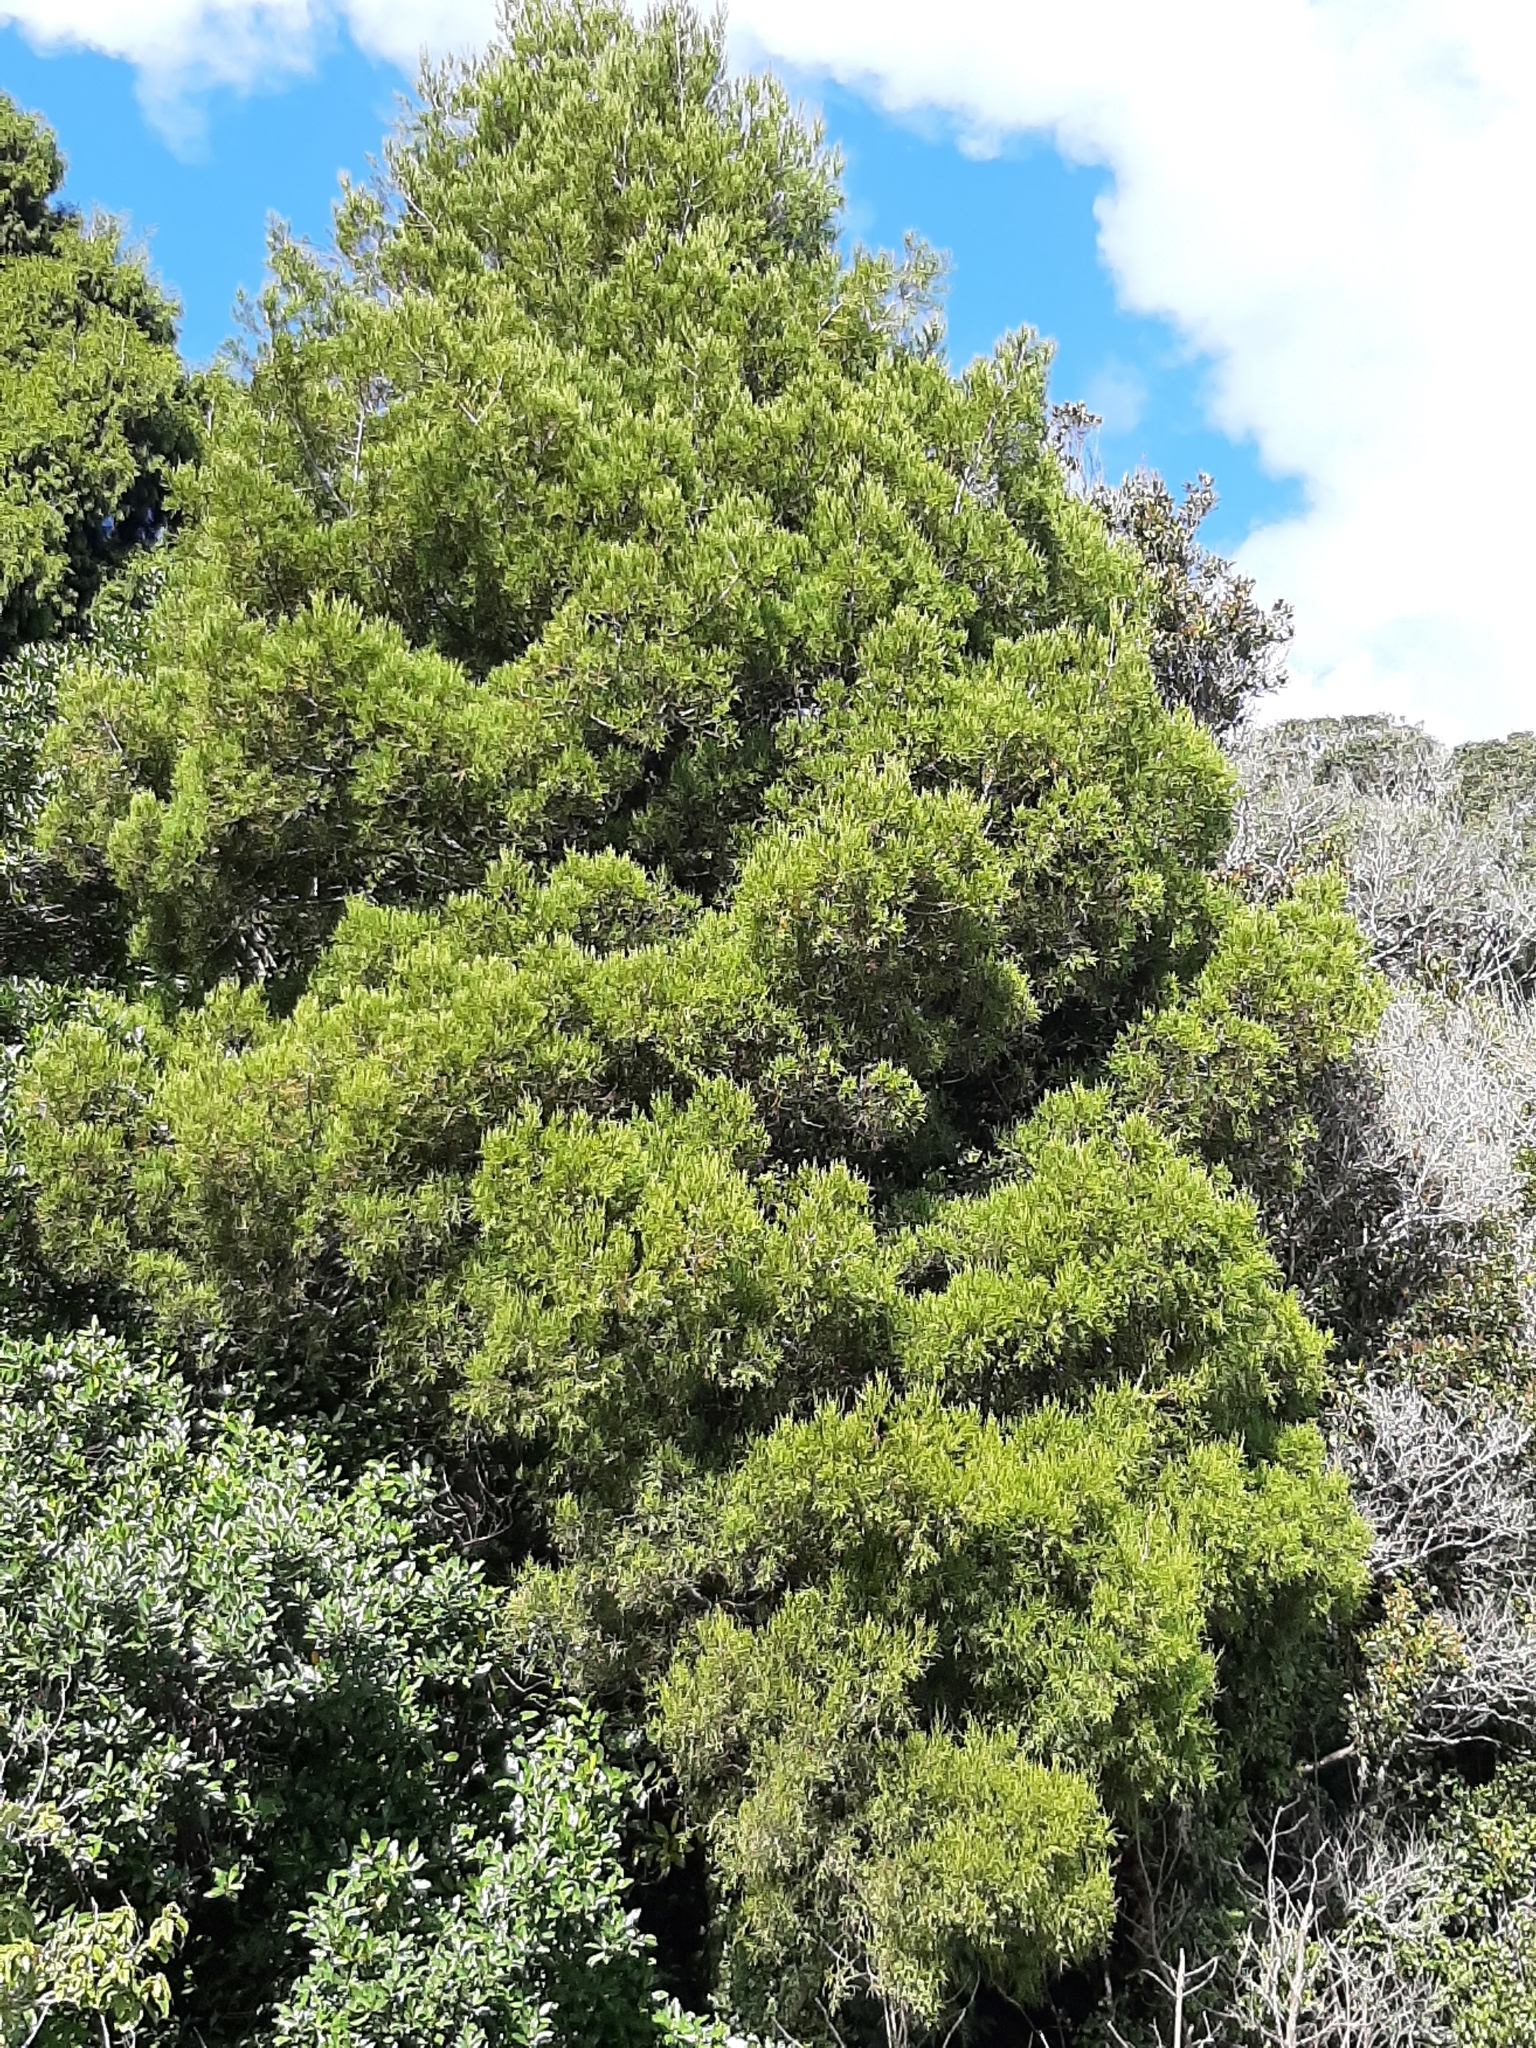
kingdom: Plantae
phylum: Tracheophyta
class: Pinopsida
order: Pinales
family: Podocarpaceae
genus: Dacrycarpus
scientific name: Dacrycarpus dacrydioides
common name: White pine
